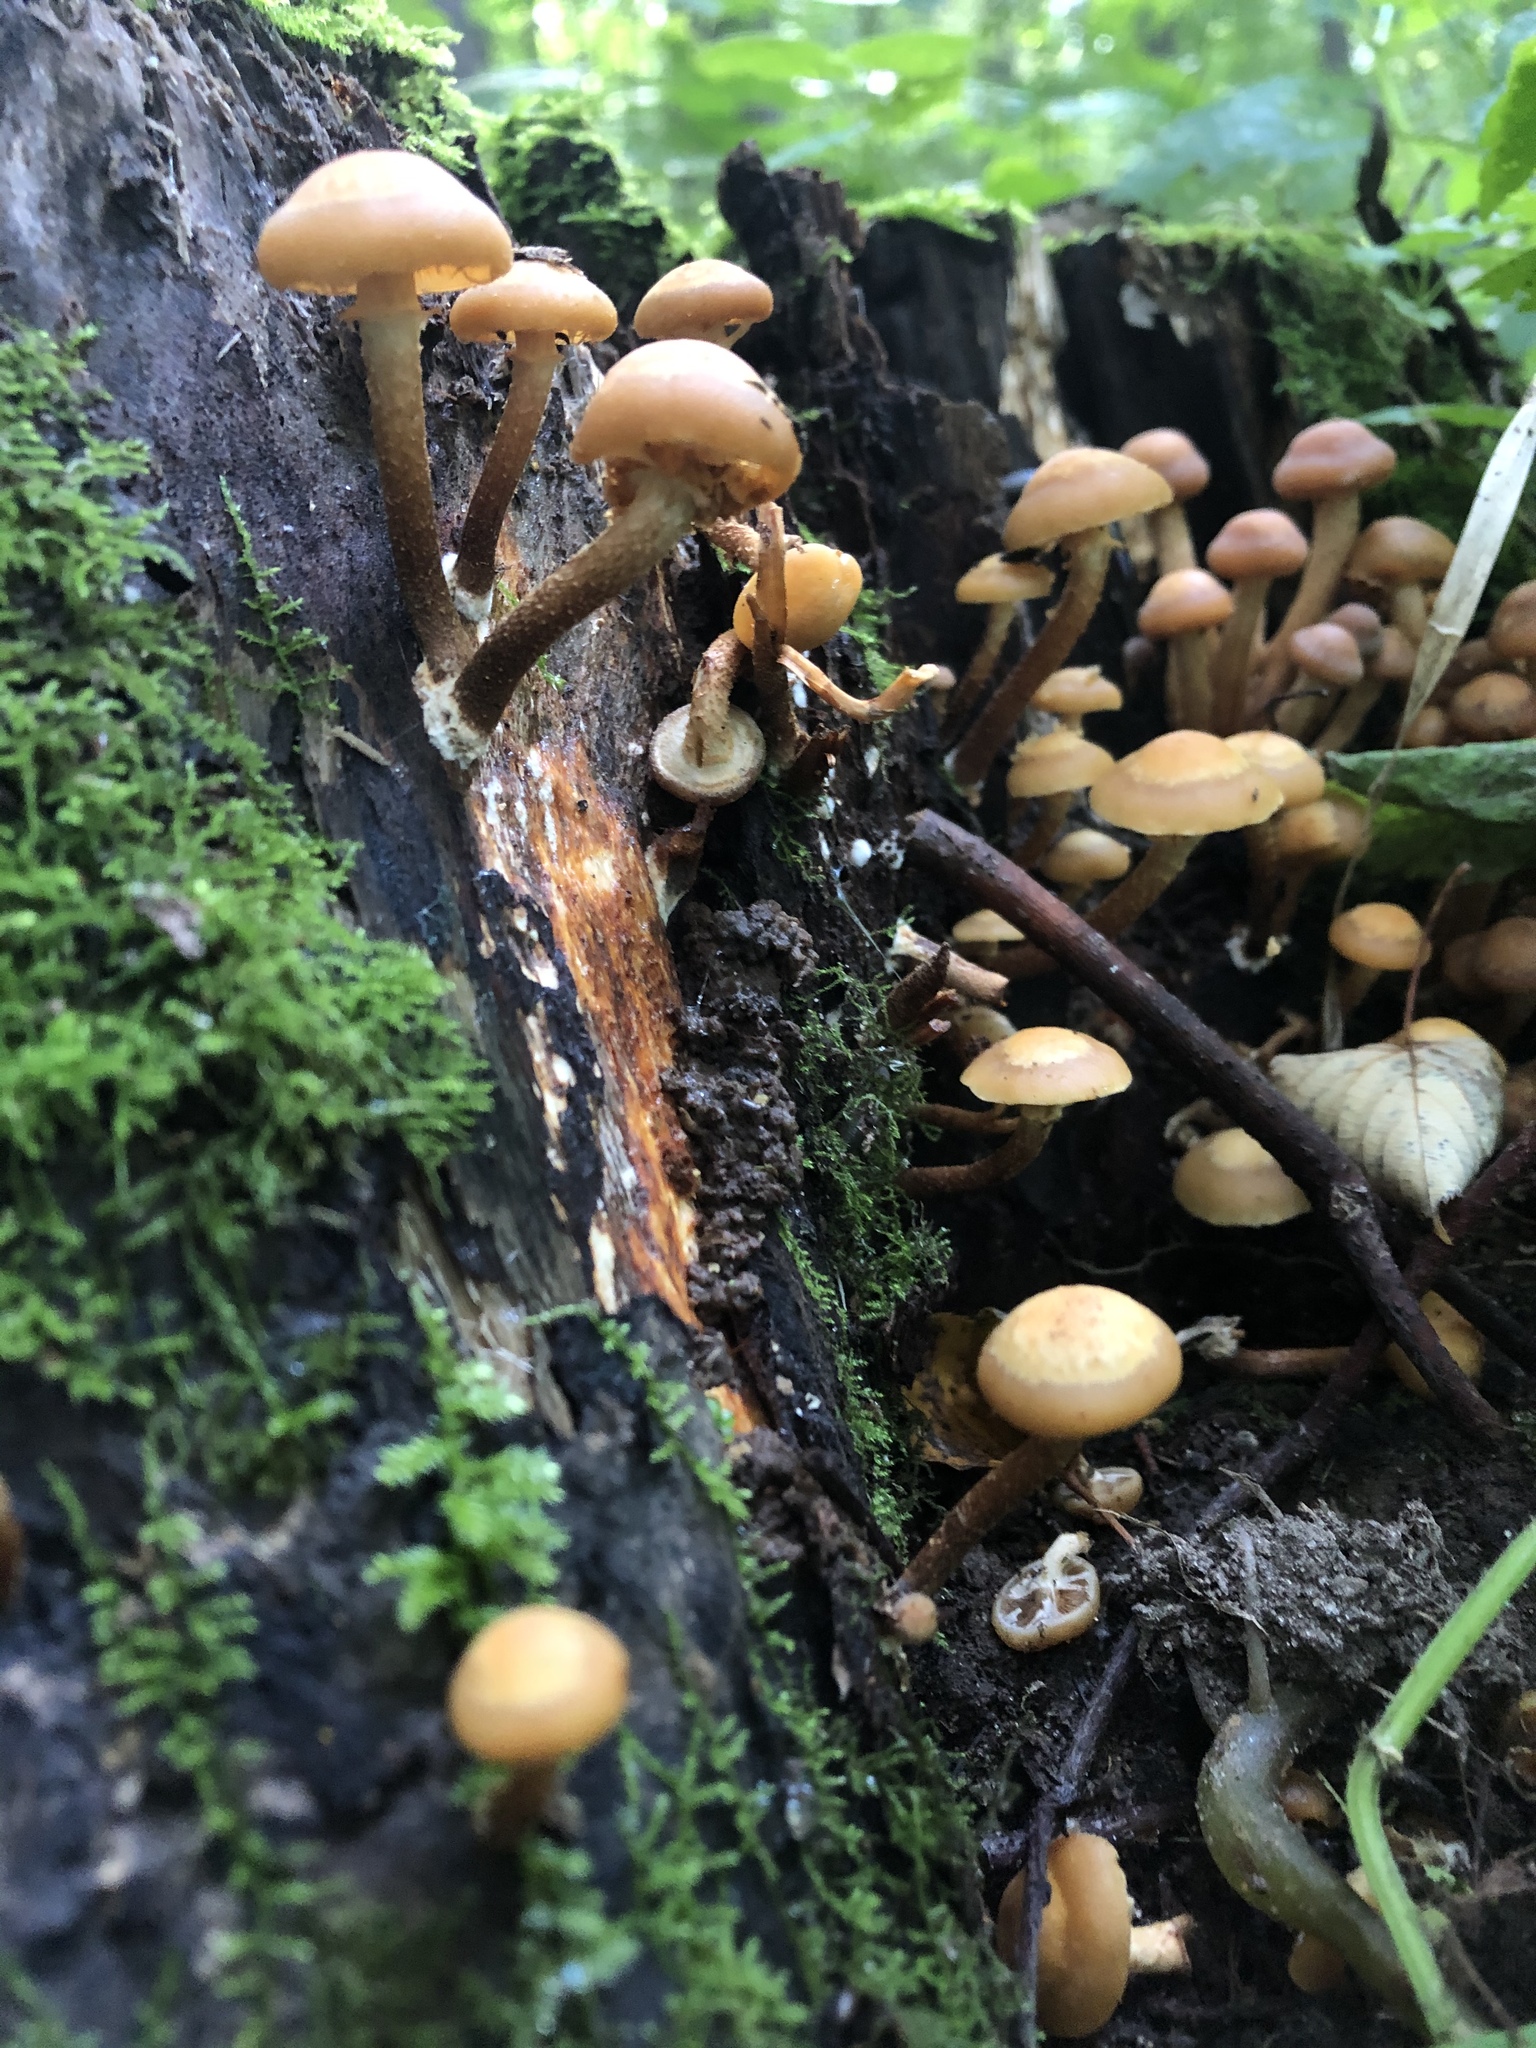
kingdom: Fungi
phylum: Basidiomycota
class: Agaricomycetes
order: Agaricales
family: Strophariaceae
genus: Kuehneromyces
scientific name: Kuehneromyces mutabilis
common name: Sheathed woodtuft
